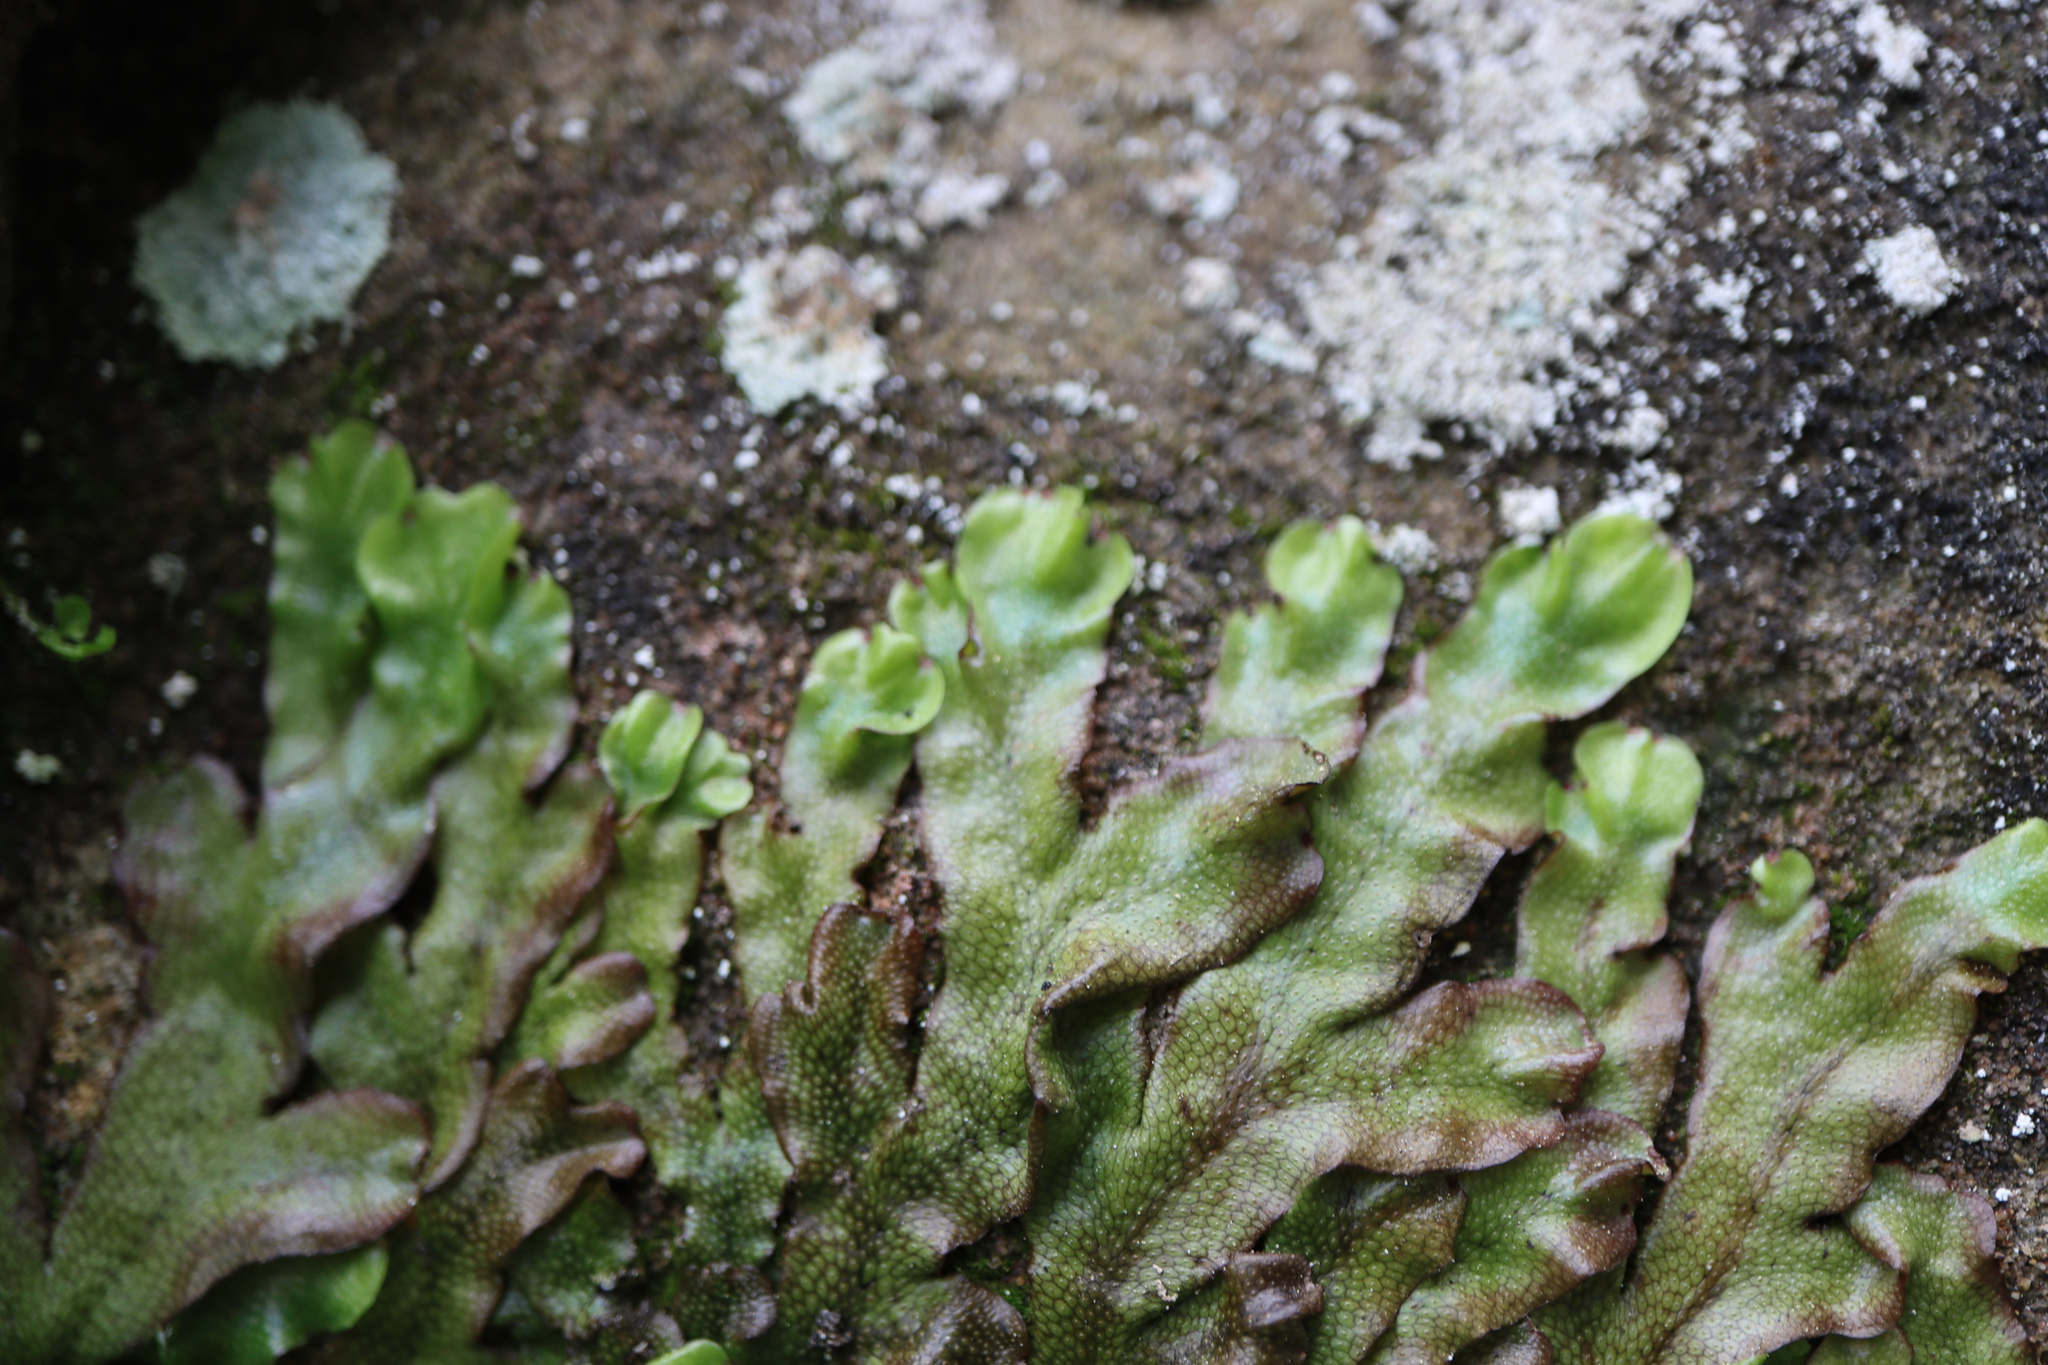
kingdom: Plantae
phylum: Marchantiophyta
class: Marchantiopsida
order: Marchantiales
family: Conocephalaceae
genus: Conocephalum
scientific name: Conocephalum conicum
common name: Great scented liverwort
